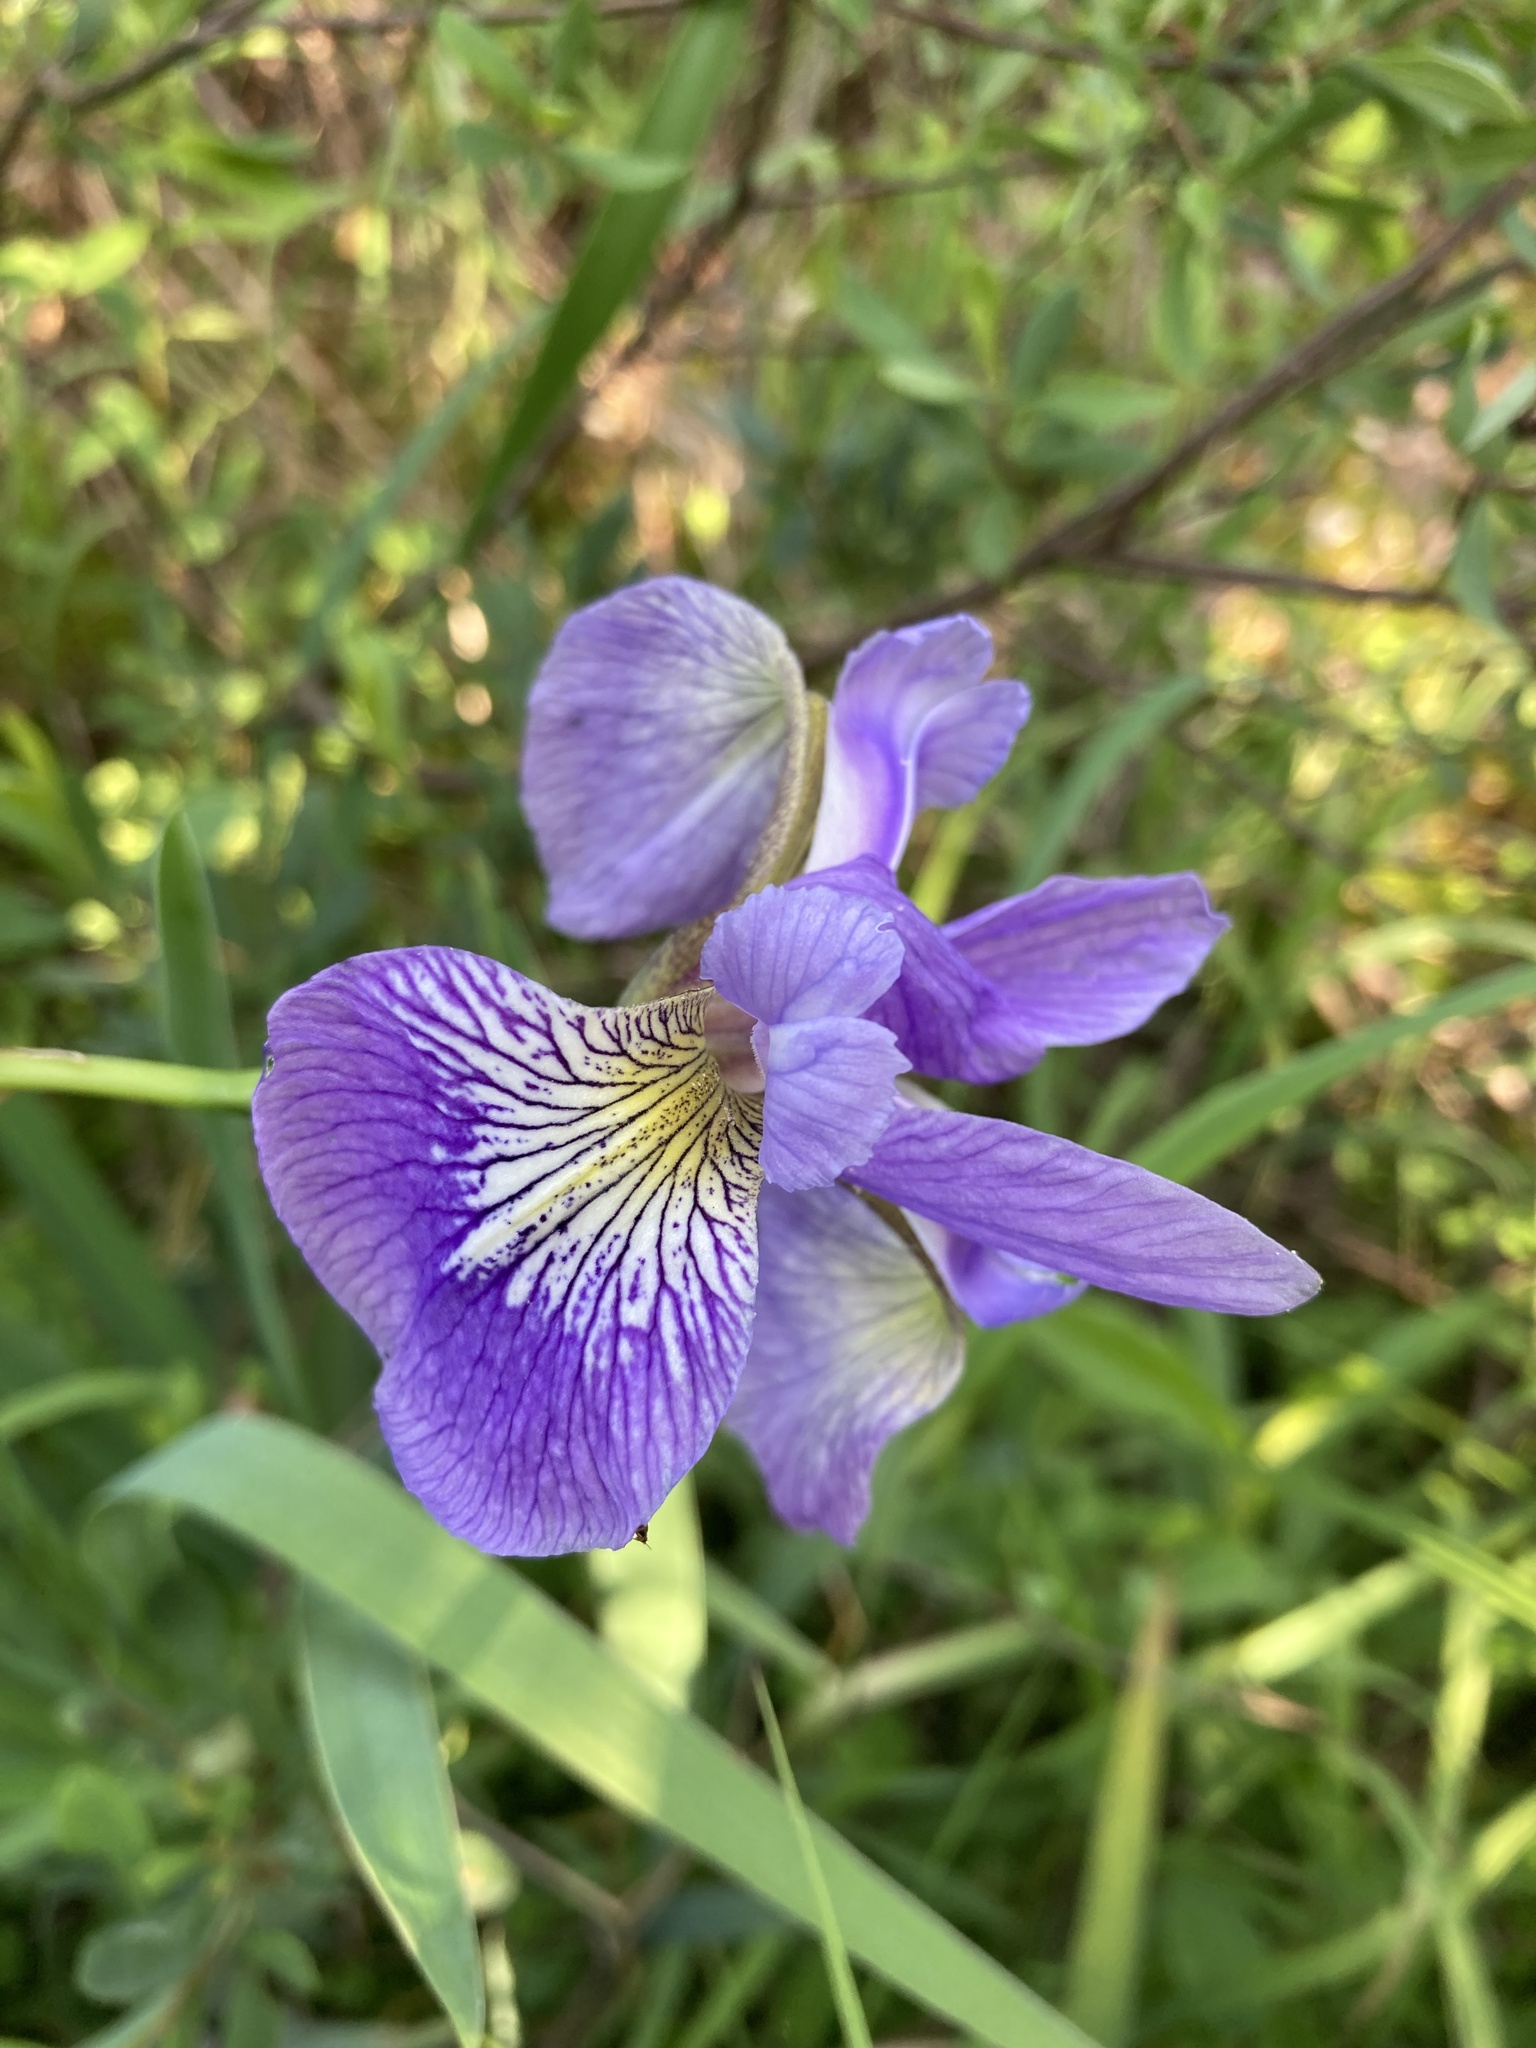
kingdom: Plantae
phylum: Tracheophyta
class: Liliopsida
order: Asparagales
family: Iridaceae
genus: Iris
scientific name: Iris versicolor
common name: Purple iris
